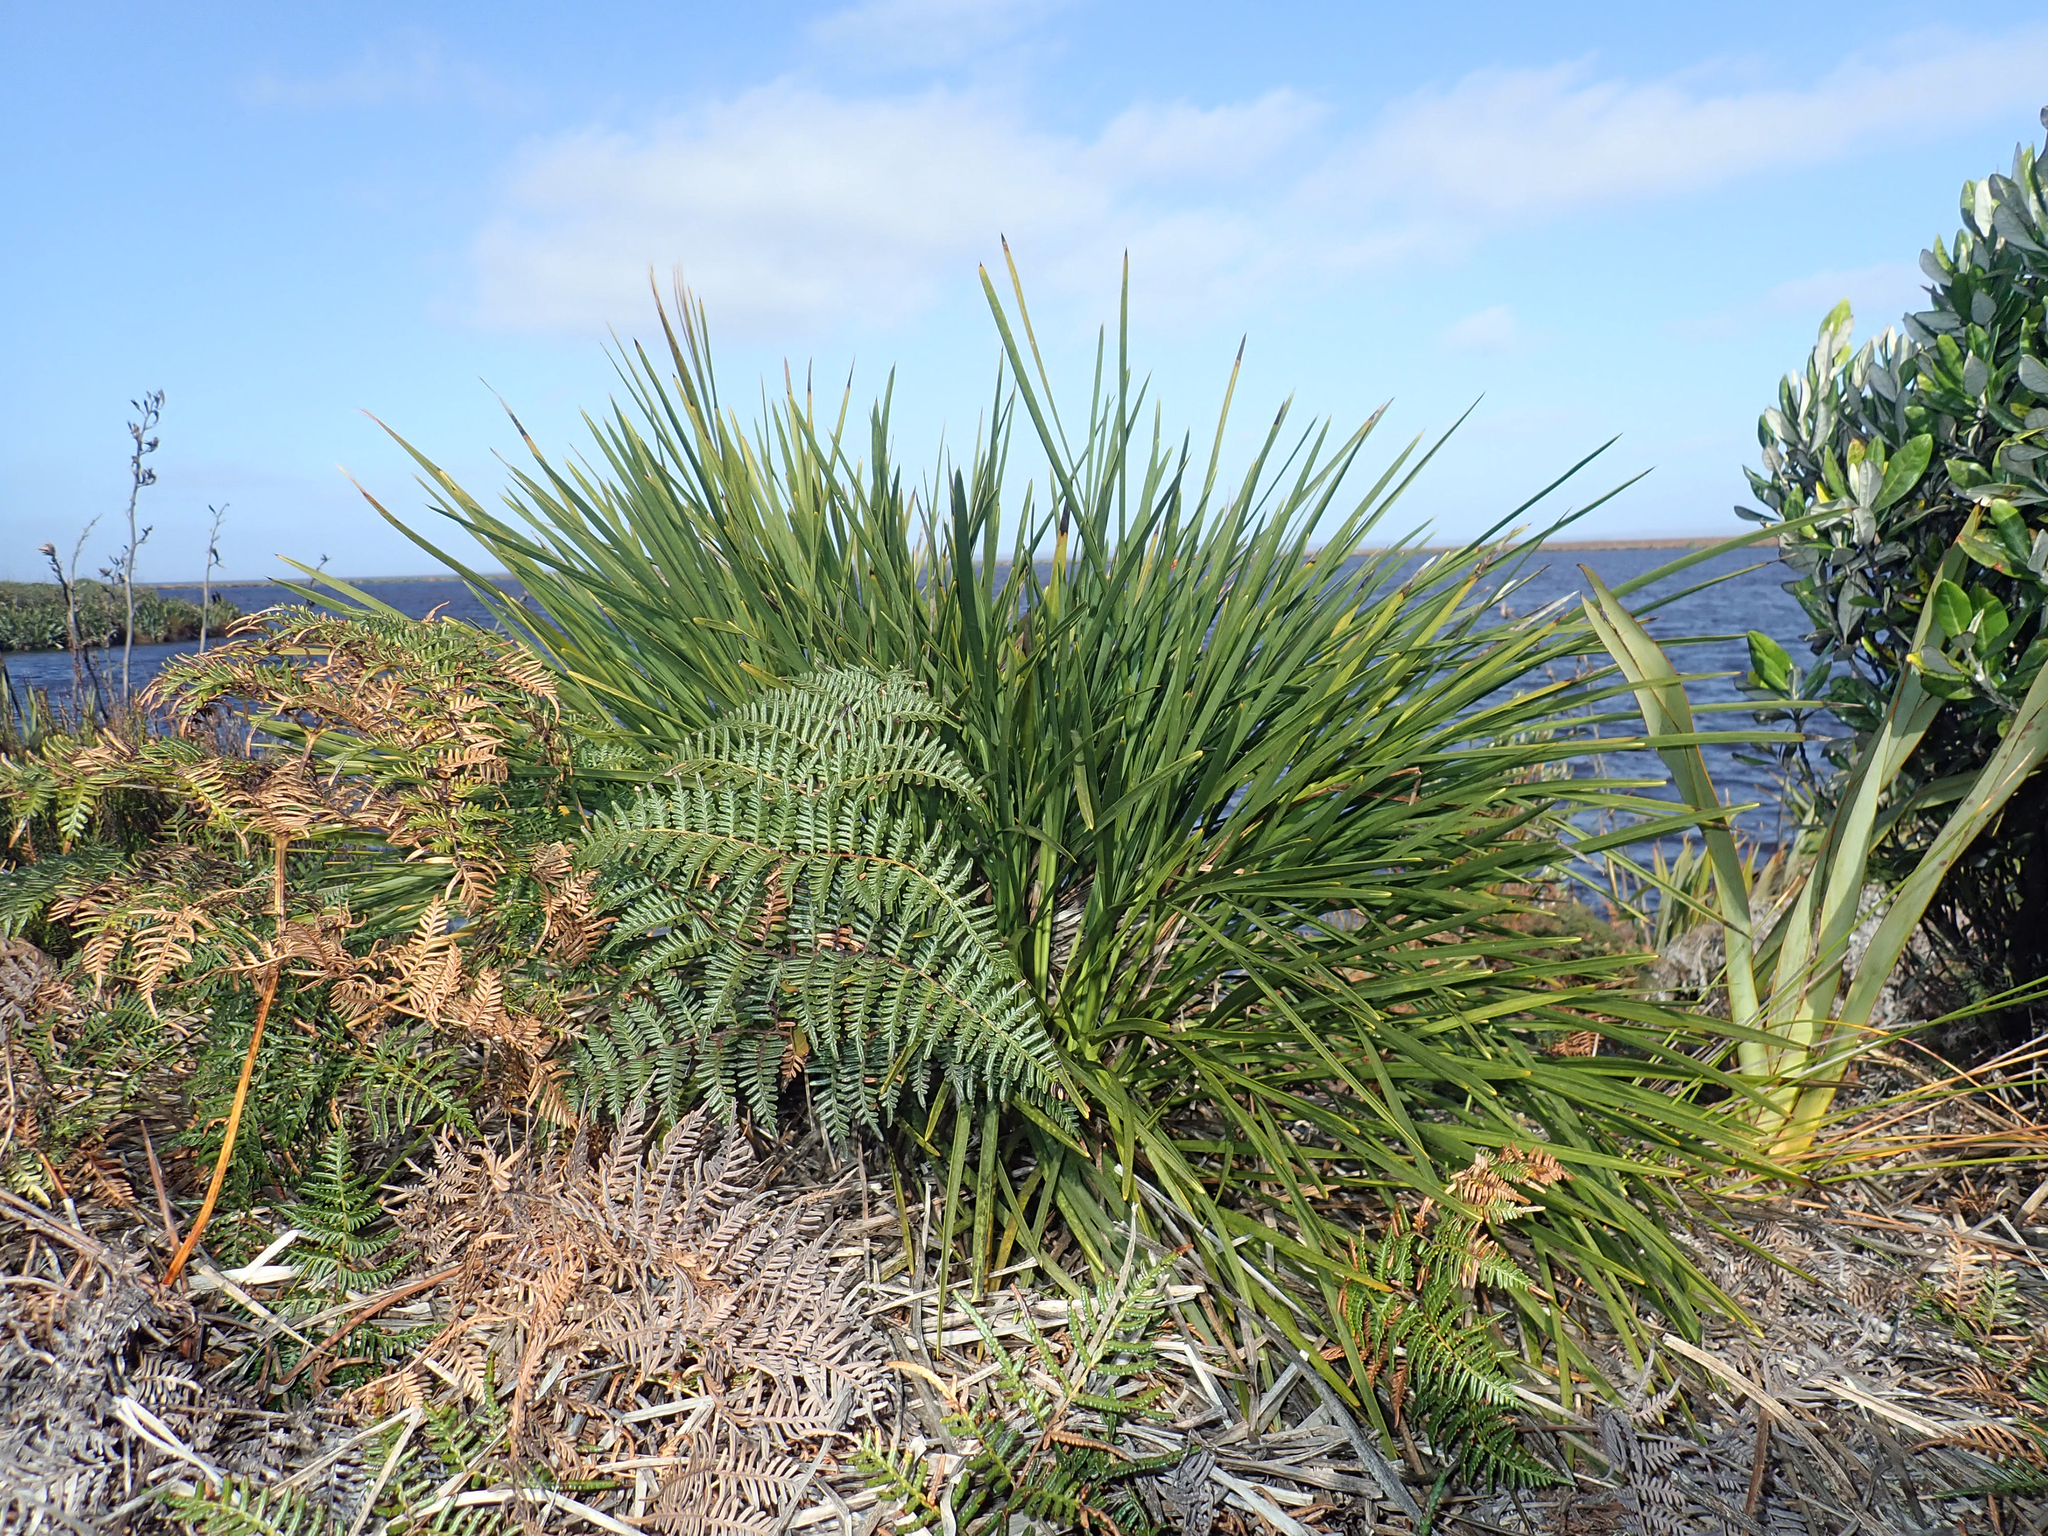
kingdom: Plantae
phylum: Tracheophyta
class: Magnoliopsida
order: Apiales
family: Apiaceae
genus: Aciphylla
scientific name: Aciphylla traversii
